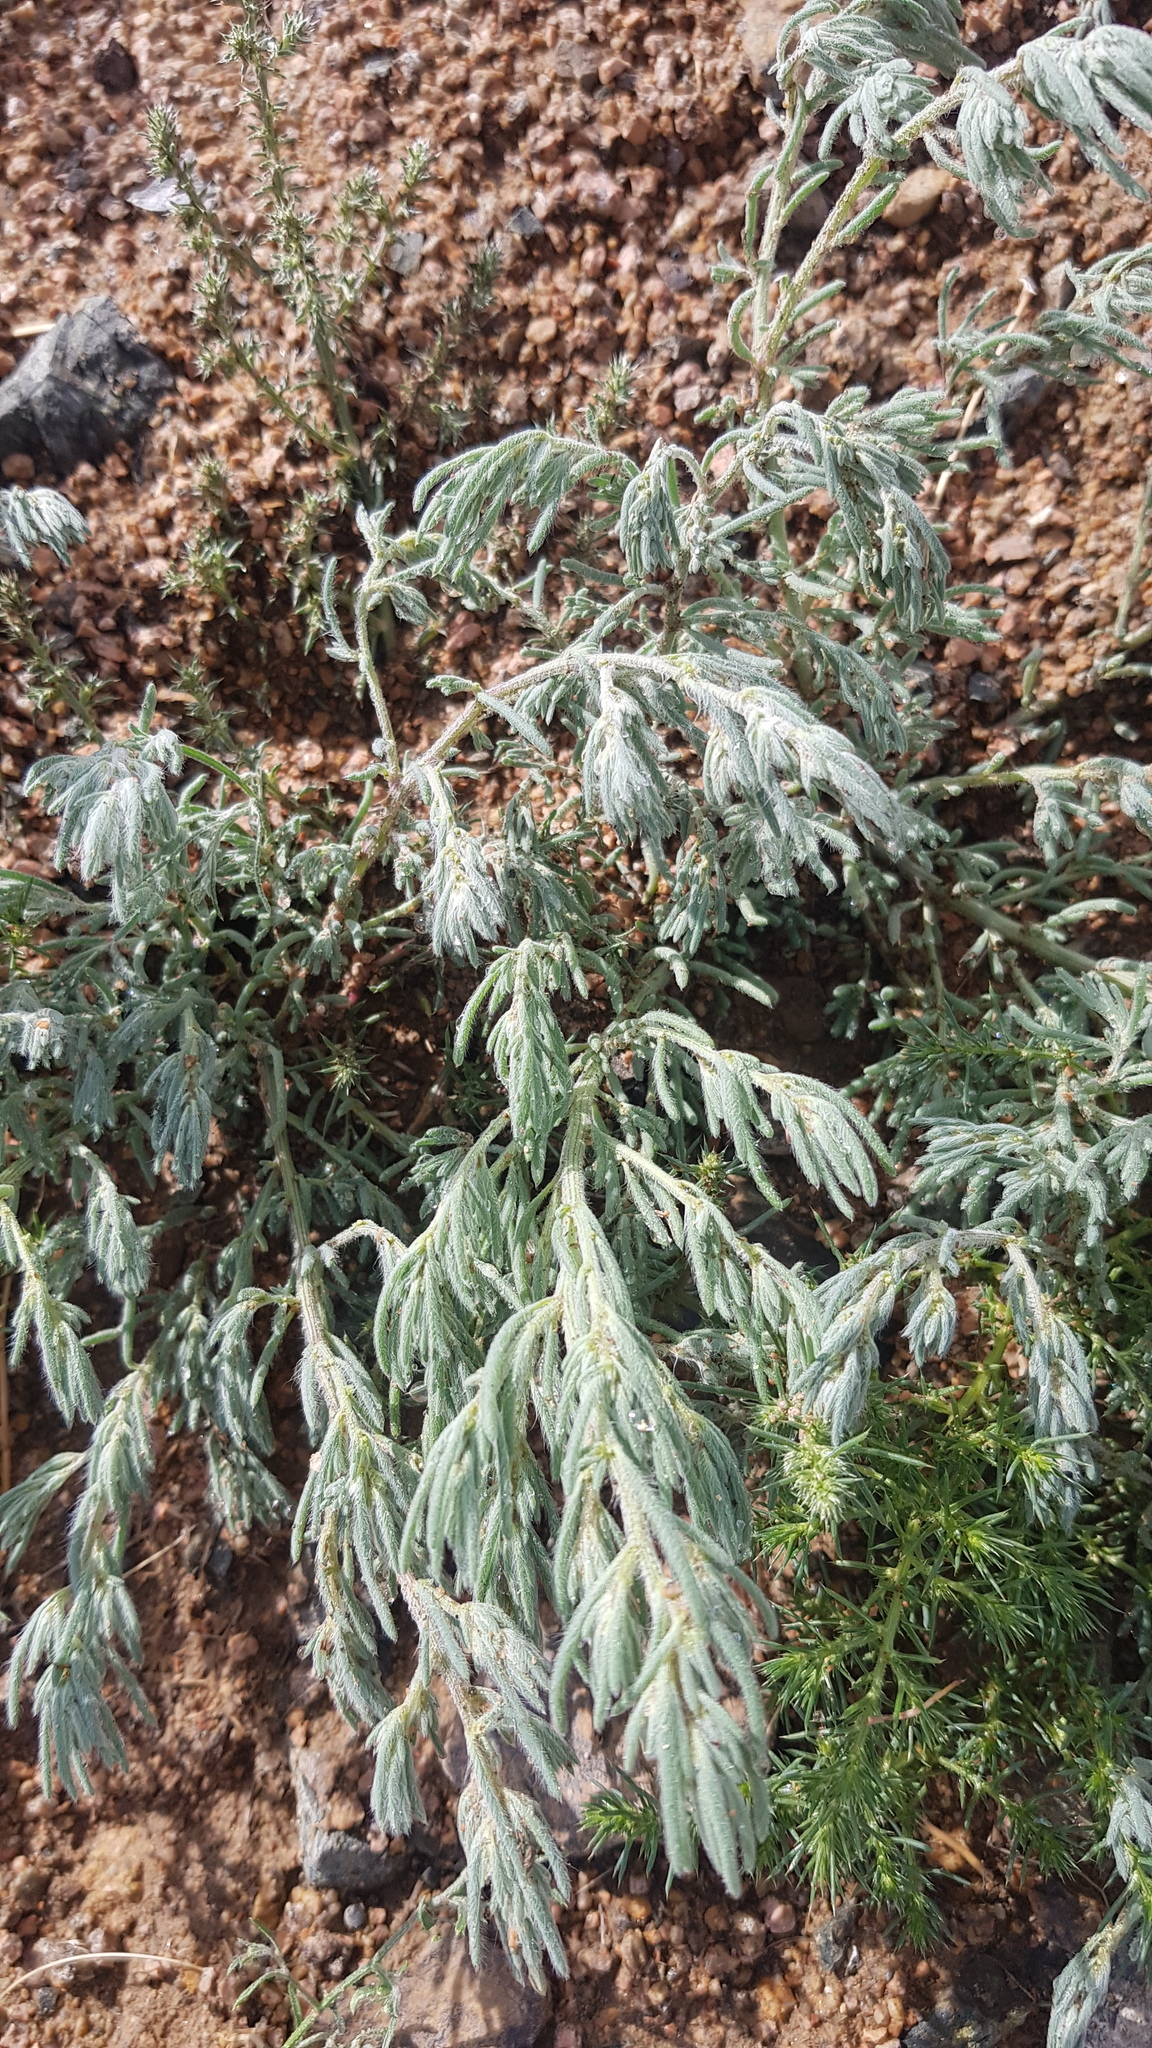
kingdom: Plantae
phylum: Tracheophyta
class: Magnoliopsida
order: Caryophyllales
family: Amaranthaceae
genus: Grubovia
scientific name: Grubovia dasyphylla
